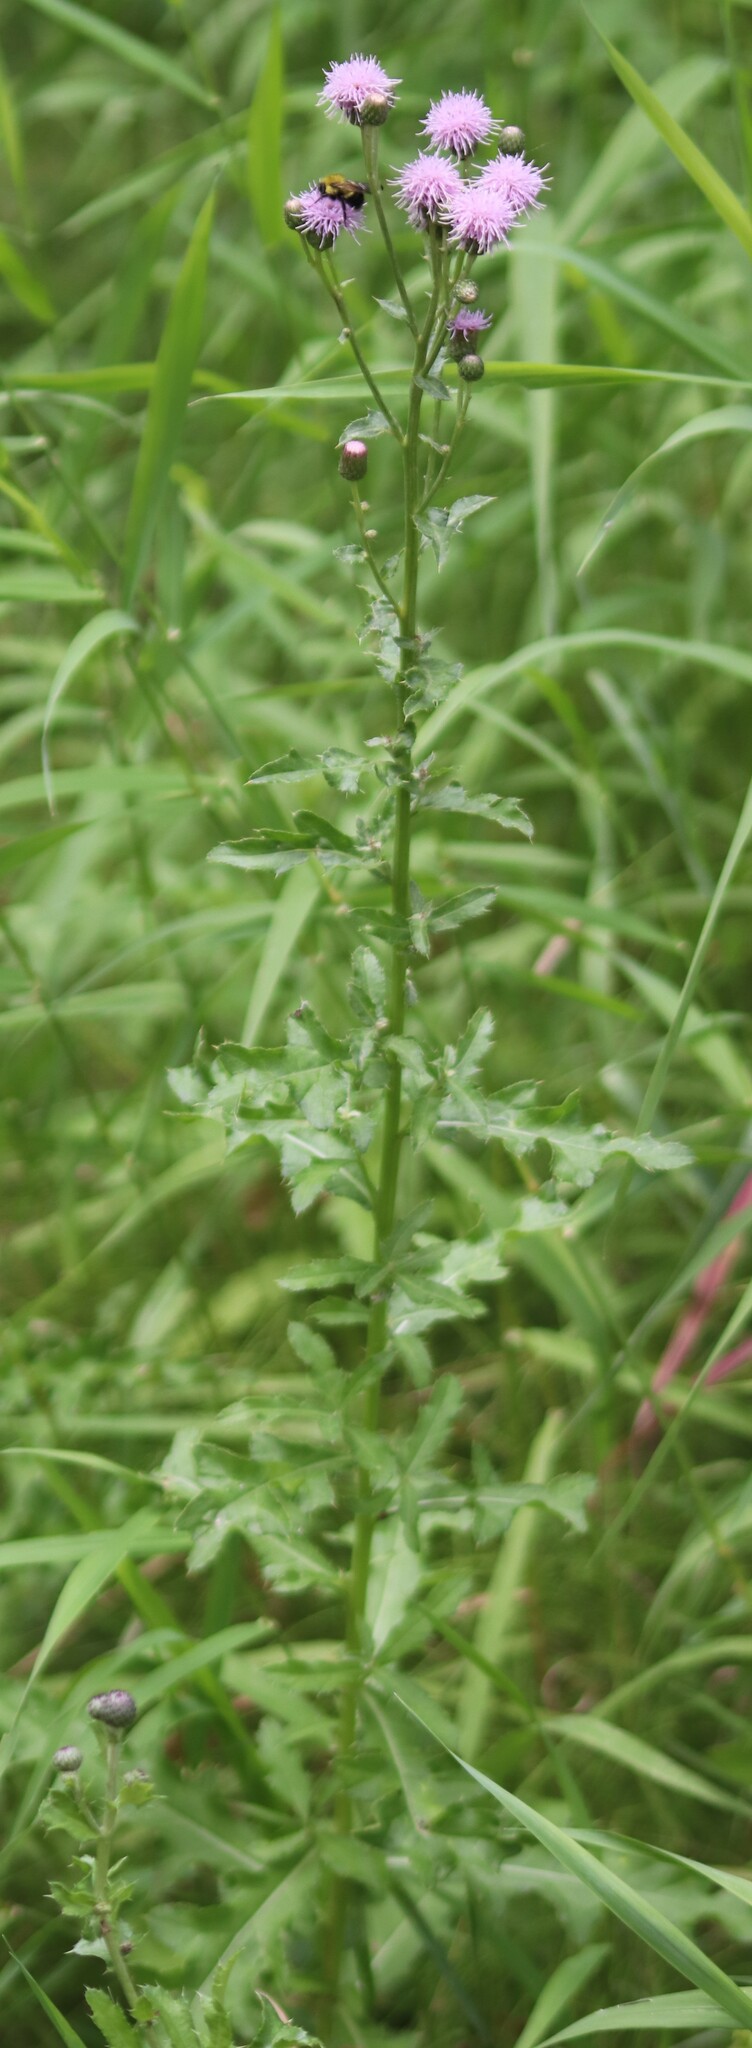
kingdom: Plantae
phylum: Tracheophyta
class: Magnoliopsida
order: Asterales
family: Asteraceae
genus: Cirsium
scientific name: Cirsium arvense
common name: Creeping thistle
